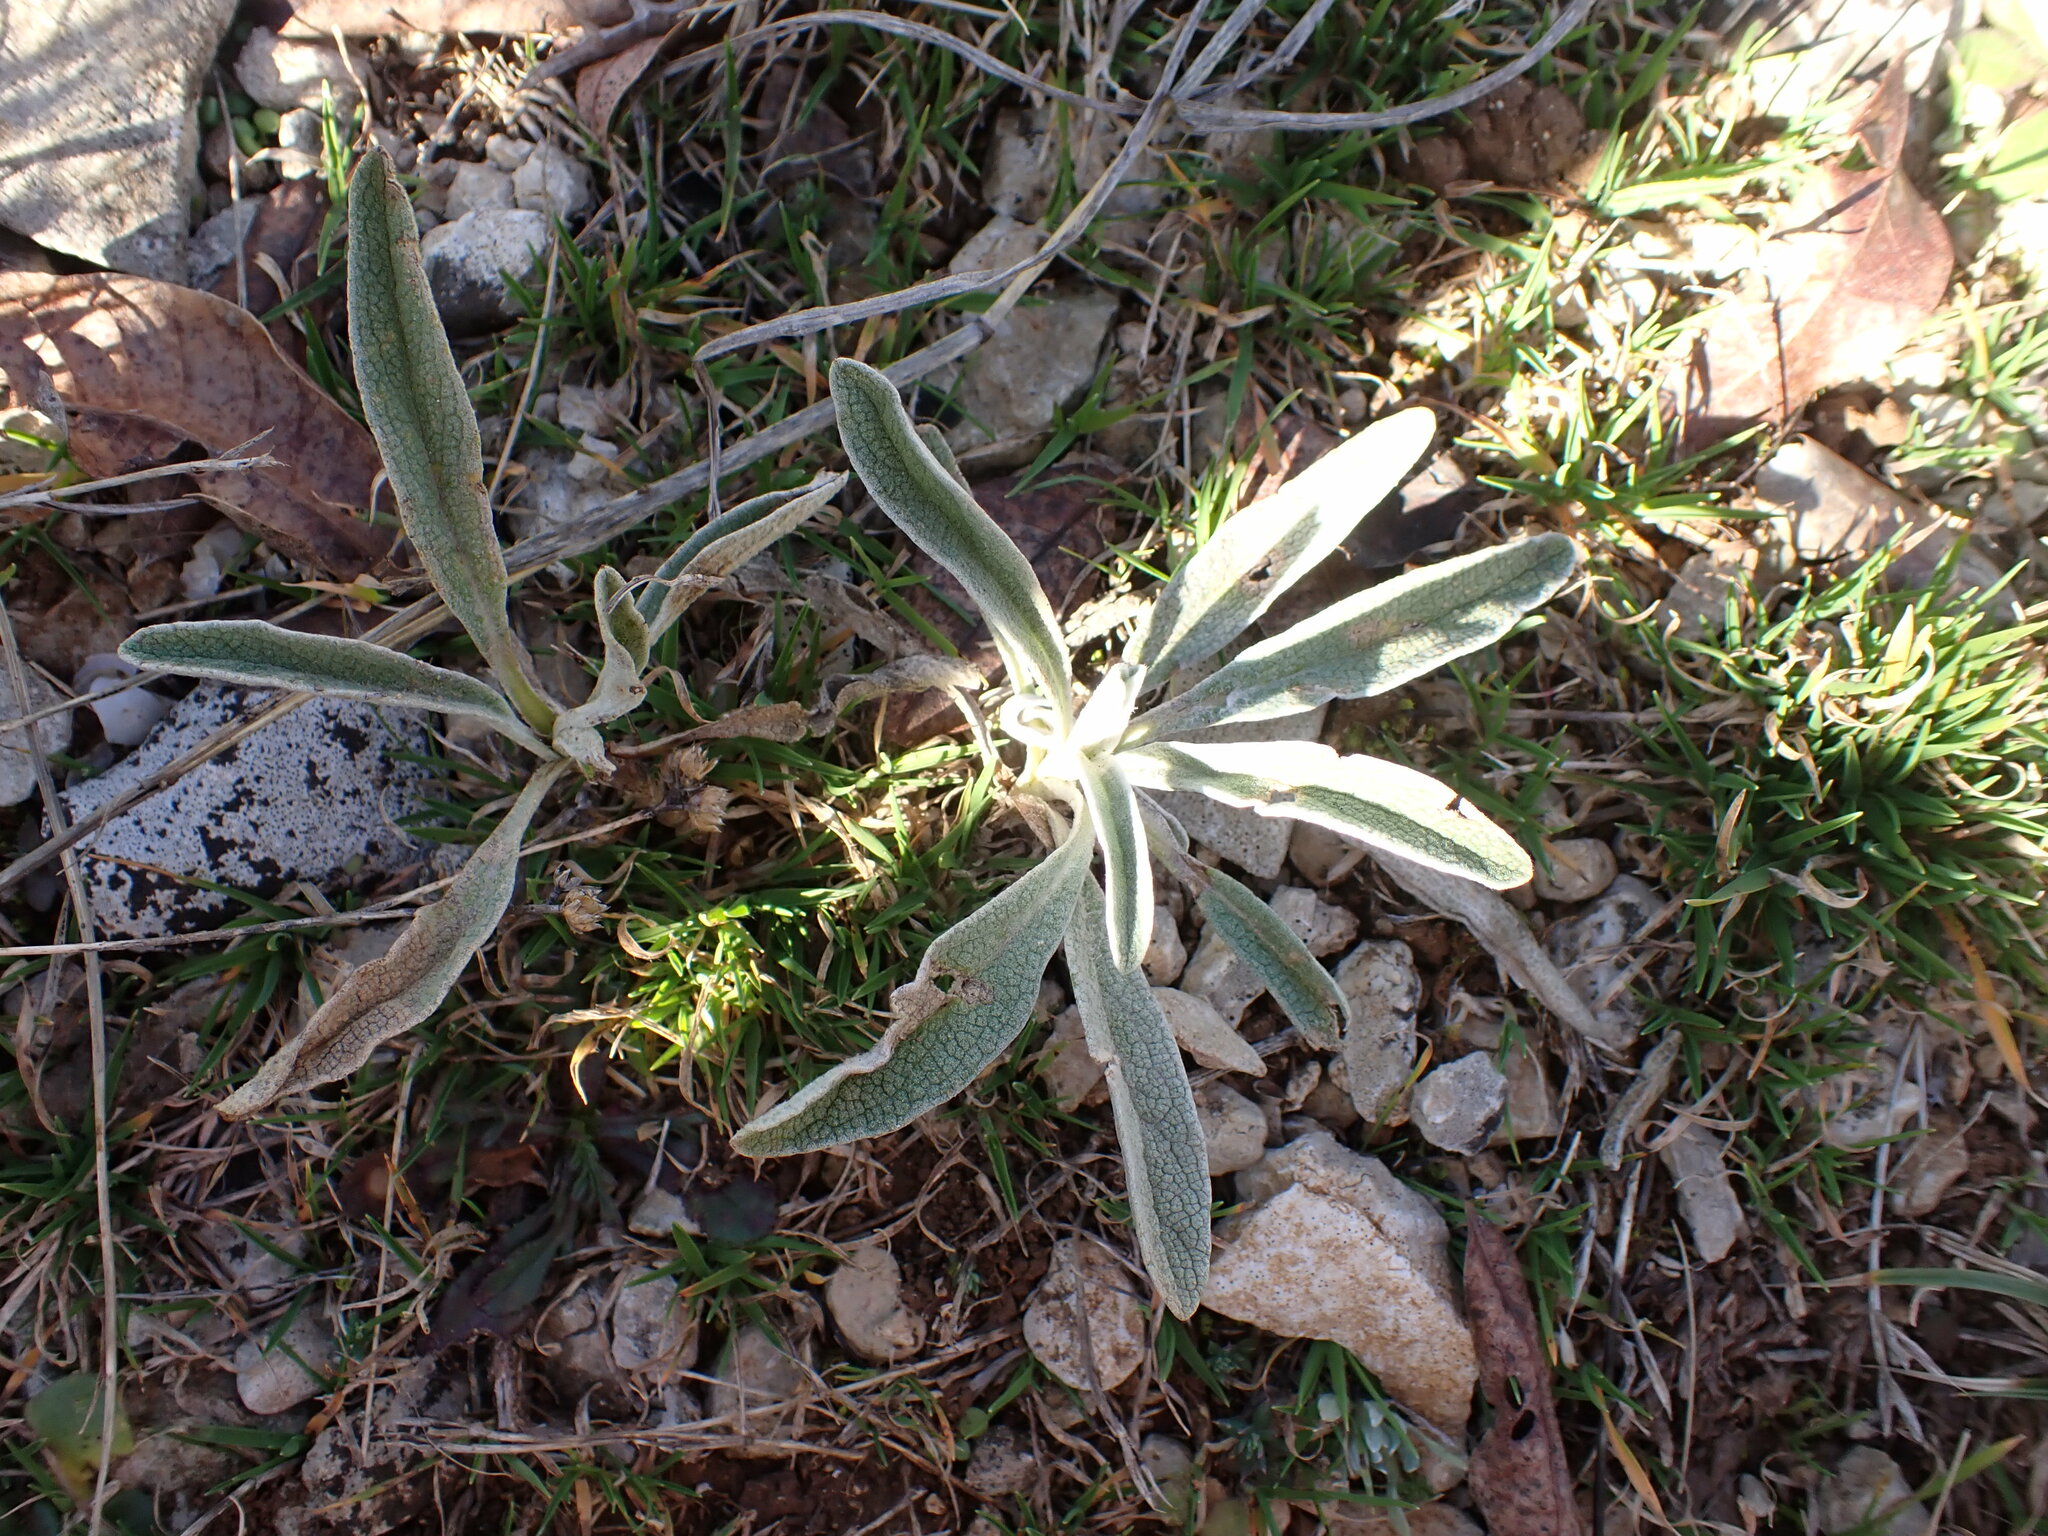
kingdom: Plantae
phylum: Tracheophyta
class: Magnoliopsida
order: Lamiales
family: Lamiaceae
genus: Phlomis
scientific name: Phlomis lychnitis
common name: Lampwickplant
